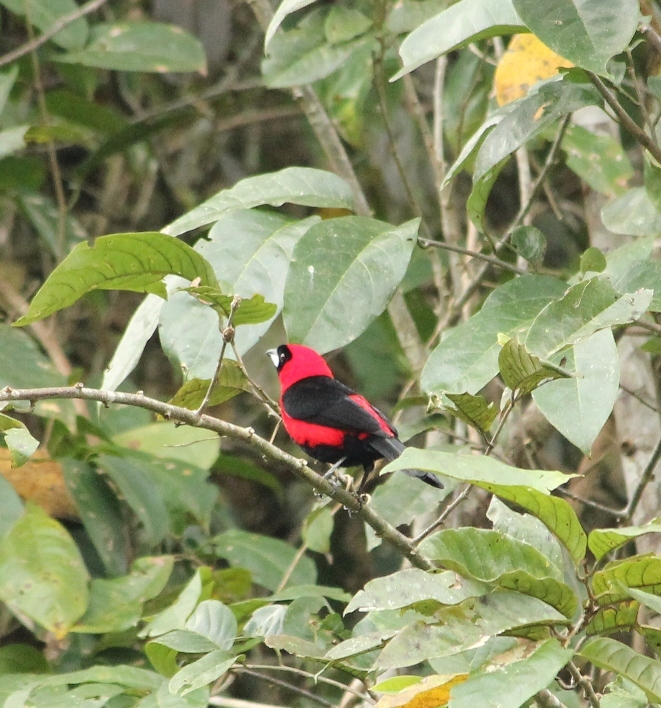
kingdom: Animalia
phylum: Chordata
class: Aves
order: Passeriformes
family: Thraupidae
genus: Ramphocelus
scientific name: Ramphocelus nigrogularis
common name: Masked crimson tanager
